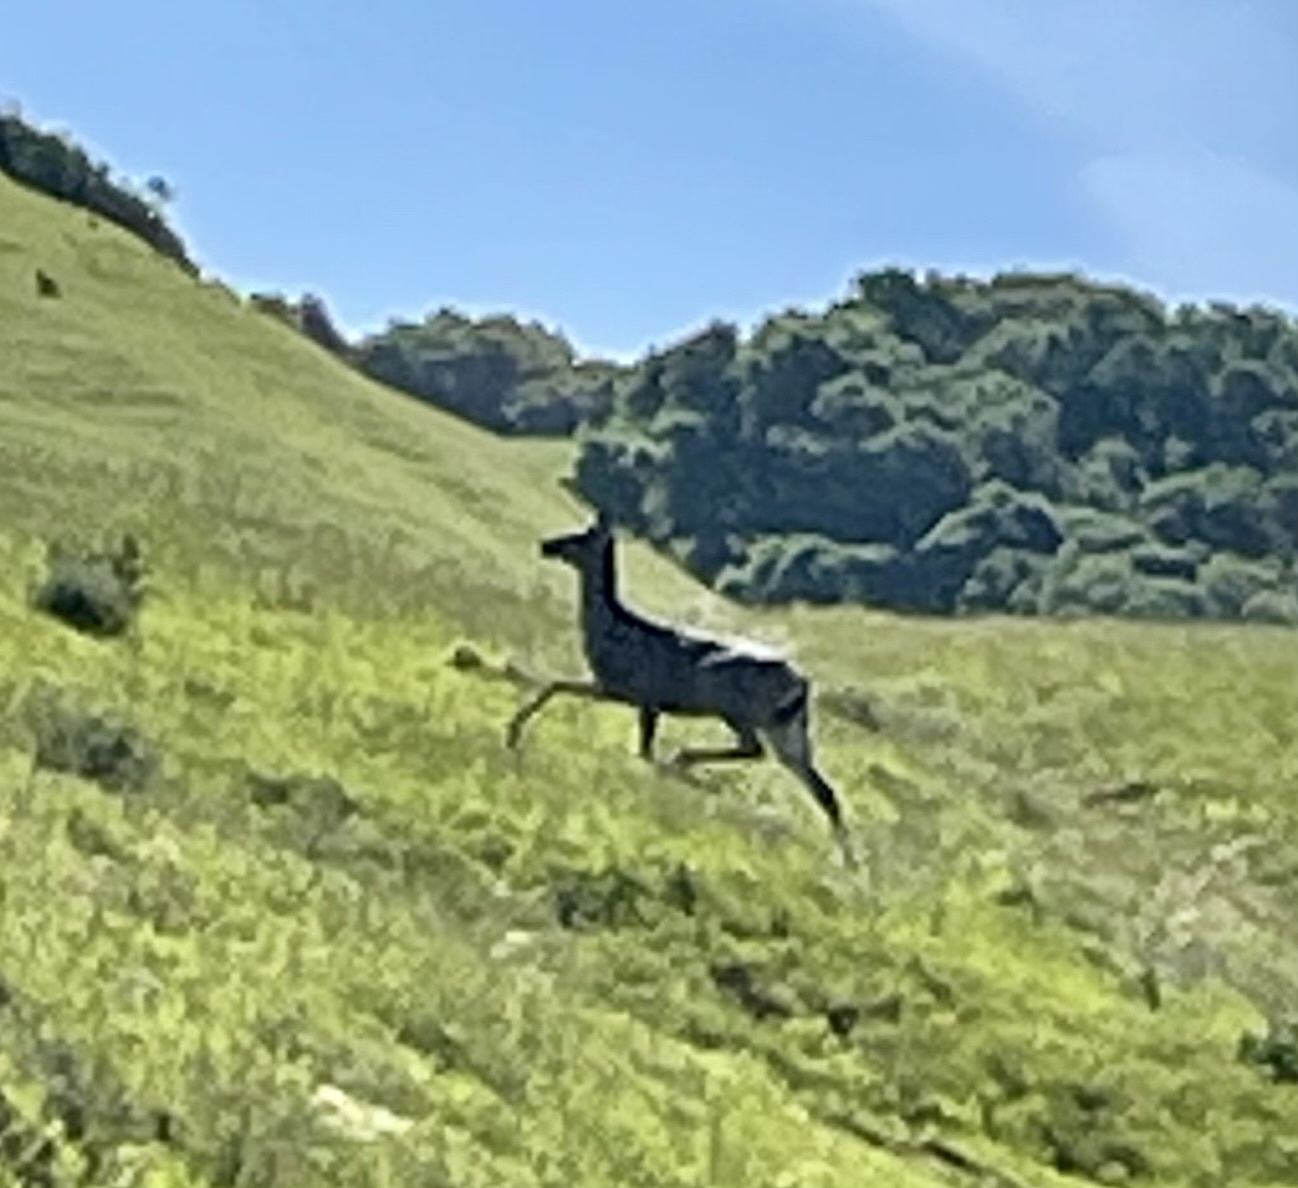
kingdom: Animalia
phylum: Chordata
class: Mammalia
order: Artiodactyla
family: Cervidae
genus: Odocoileus
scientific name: Odocoileus hemionus
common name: Mule deer
